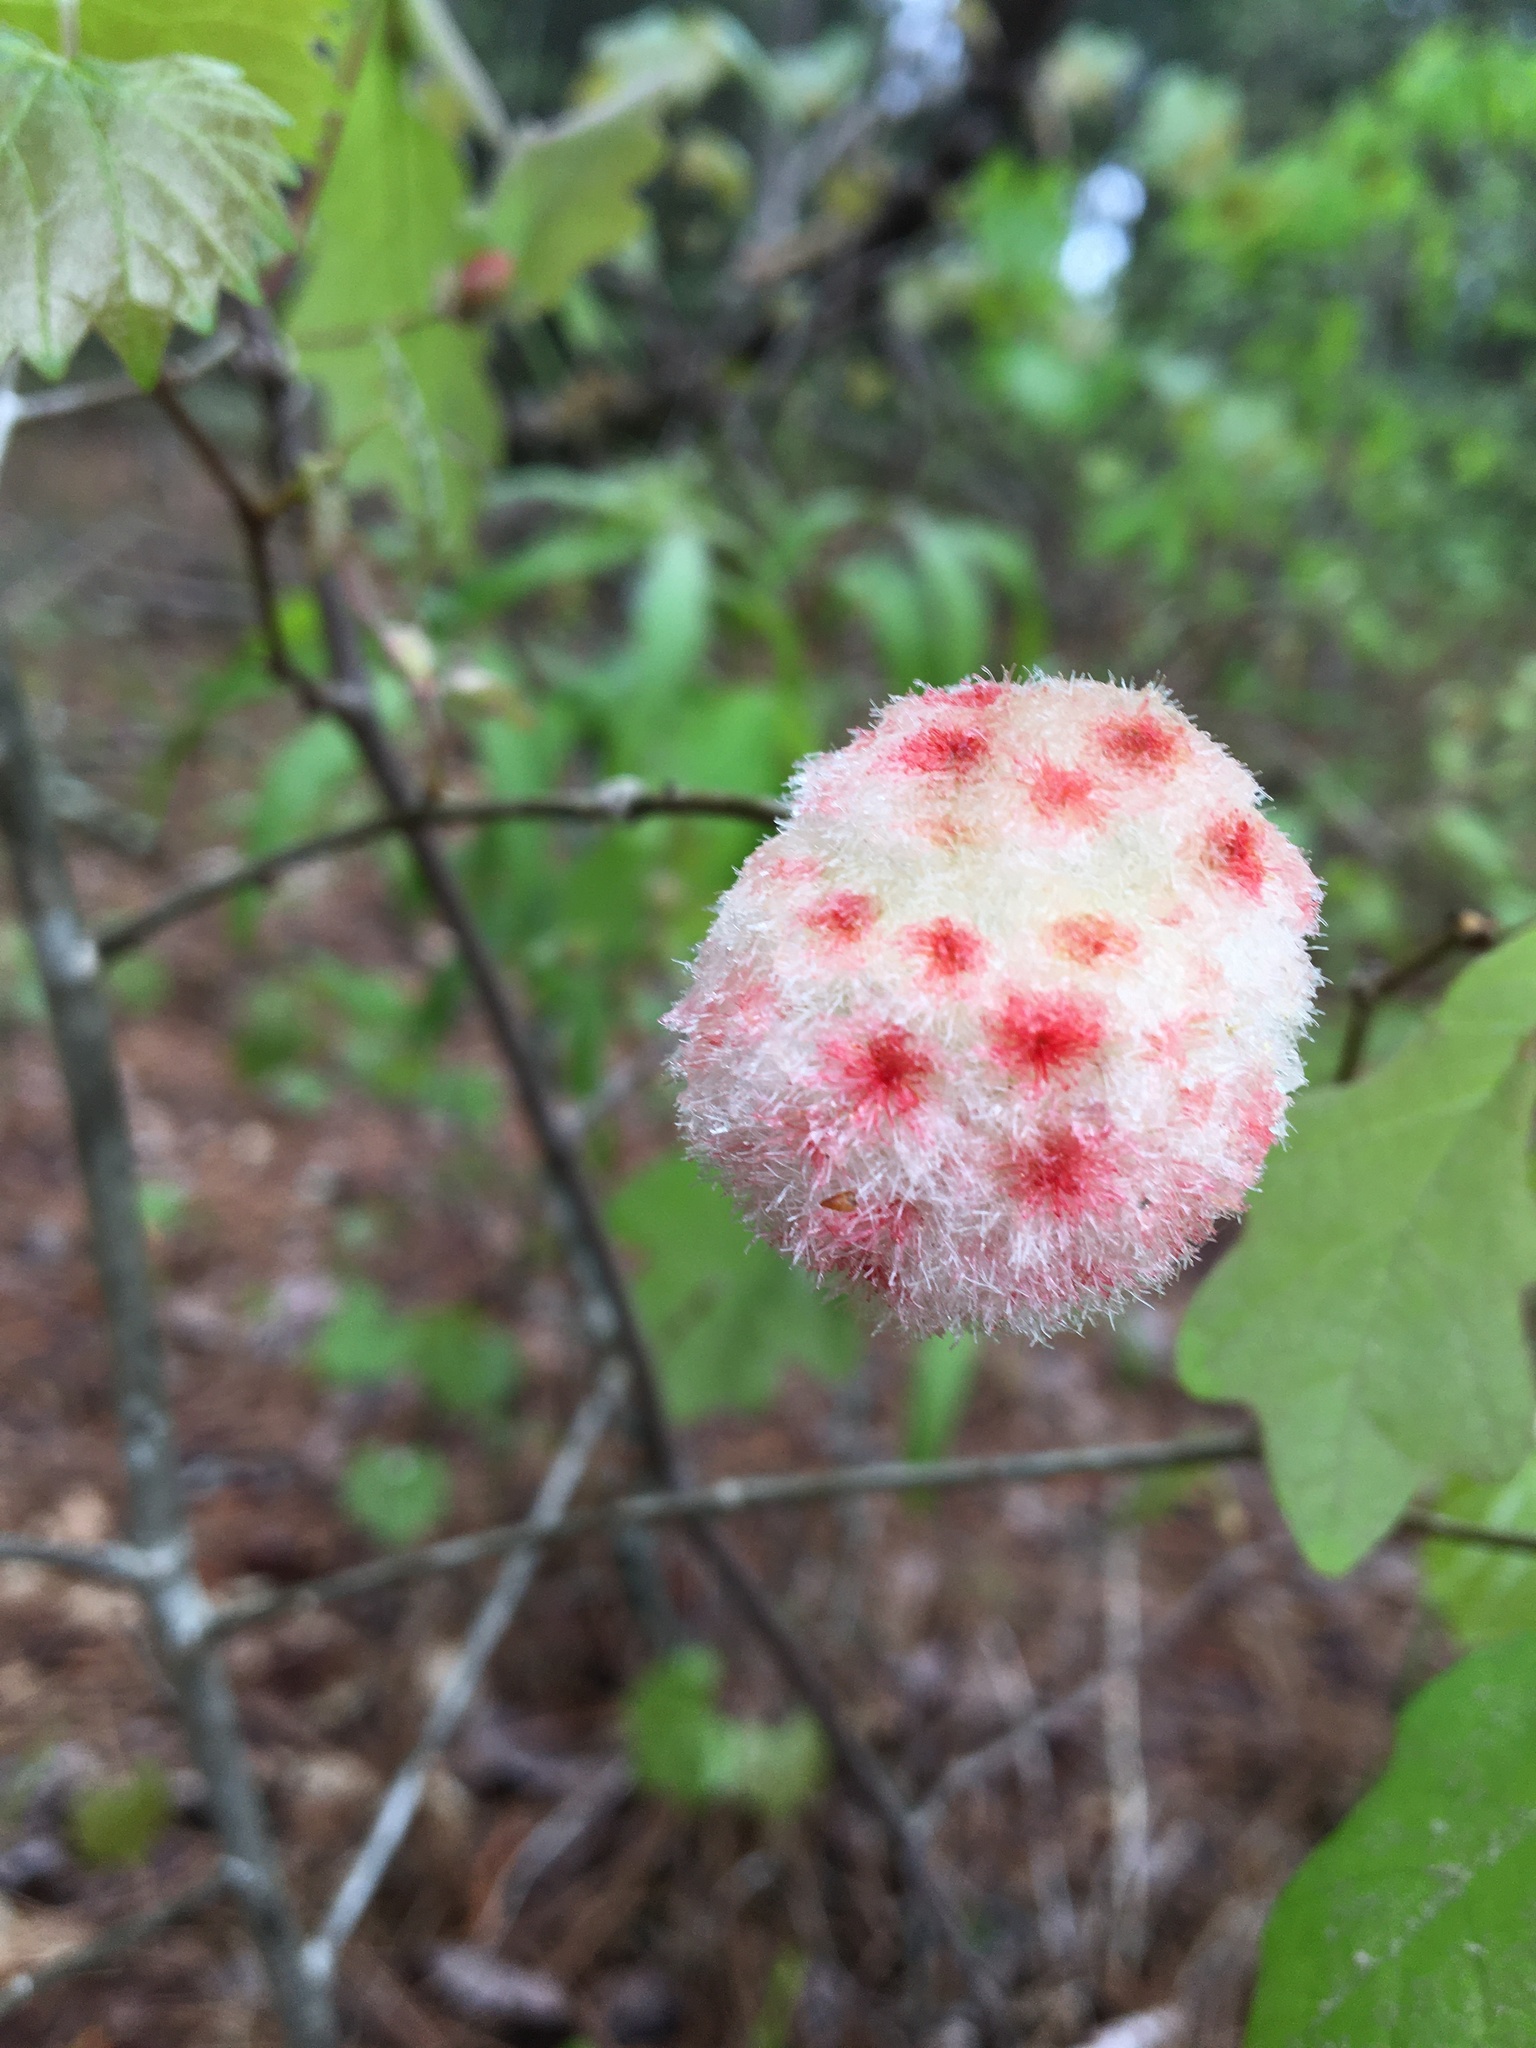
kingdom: Animalia
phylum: Arthropoda
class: Insecta
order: Hymenoptera
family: Cynipidae
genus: Callirhytis
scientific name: Callirhytis
